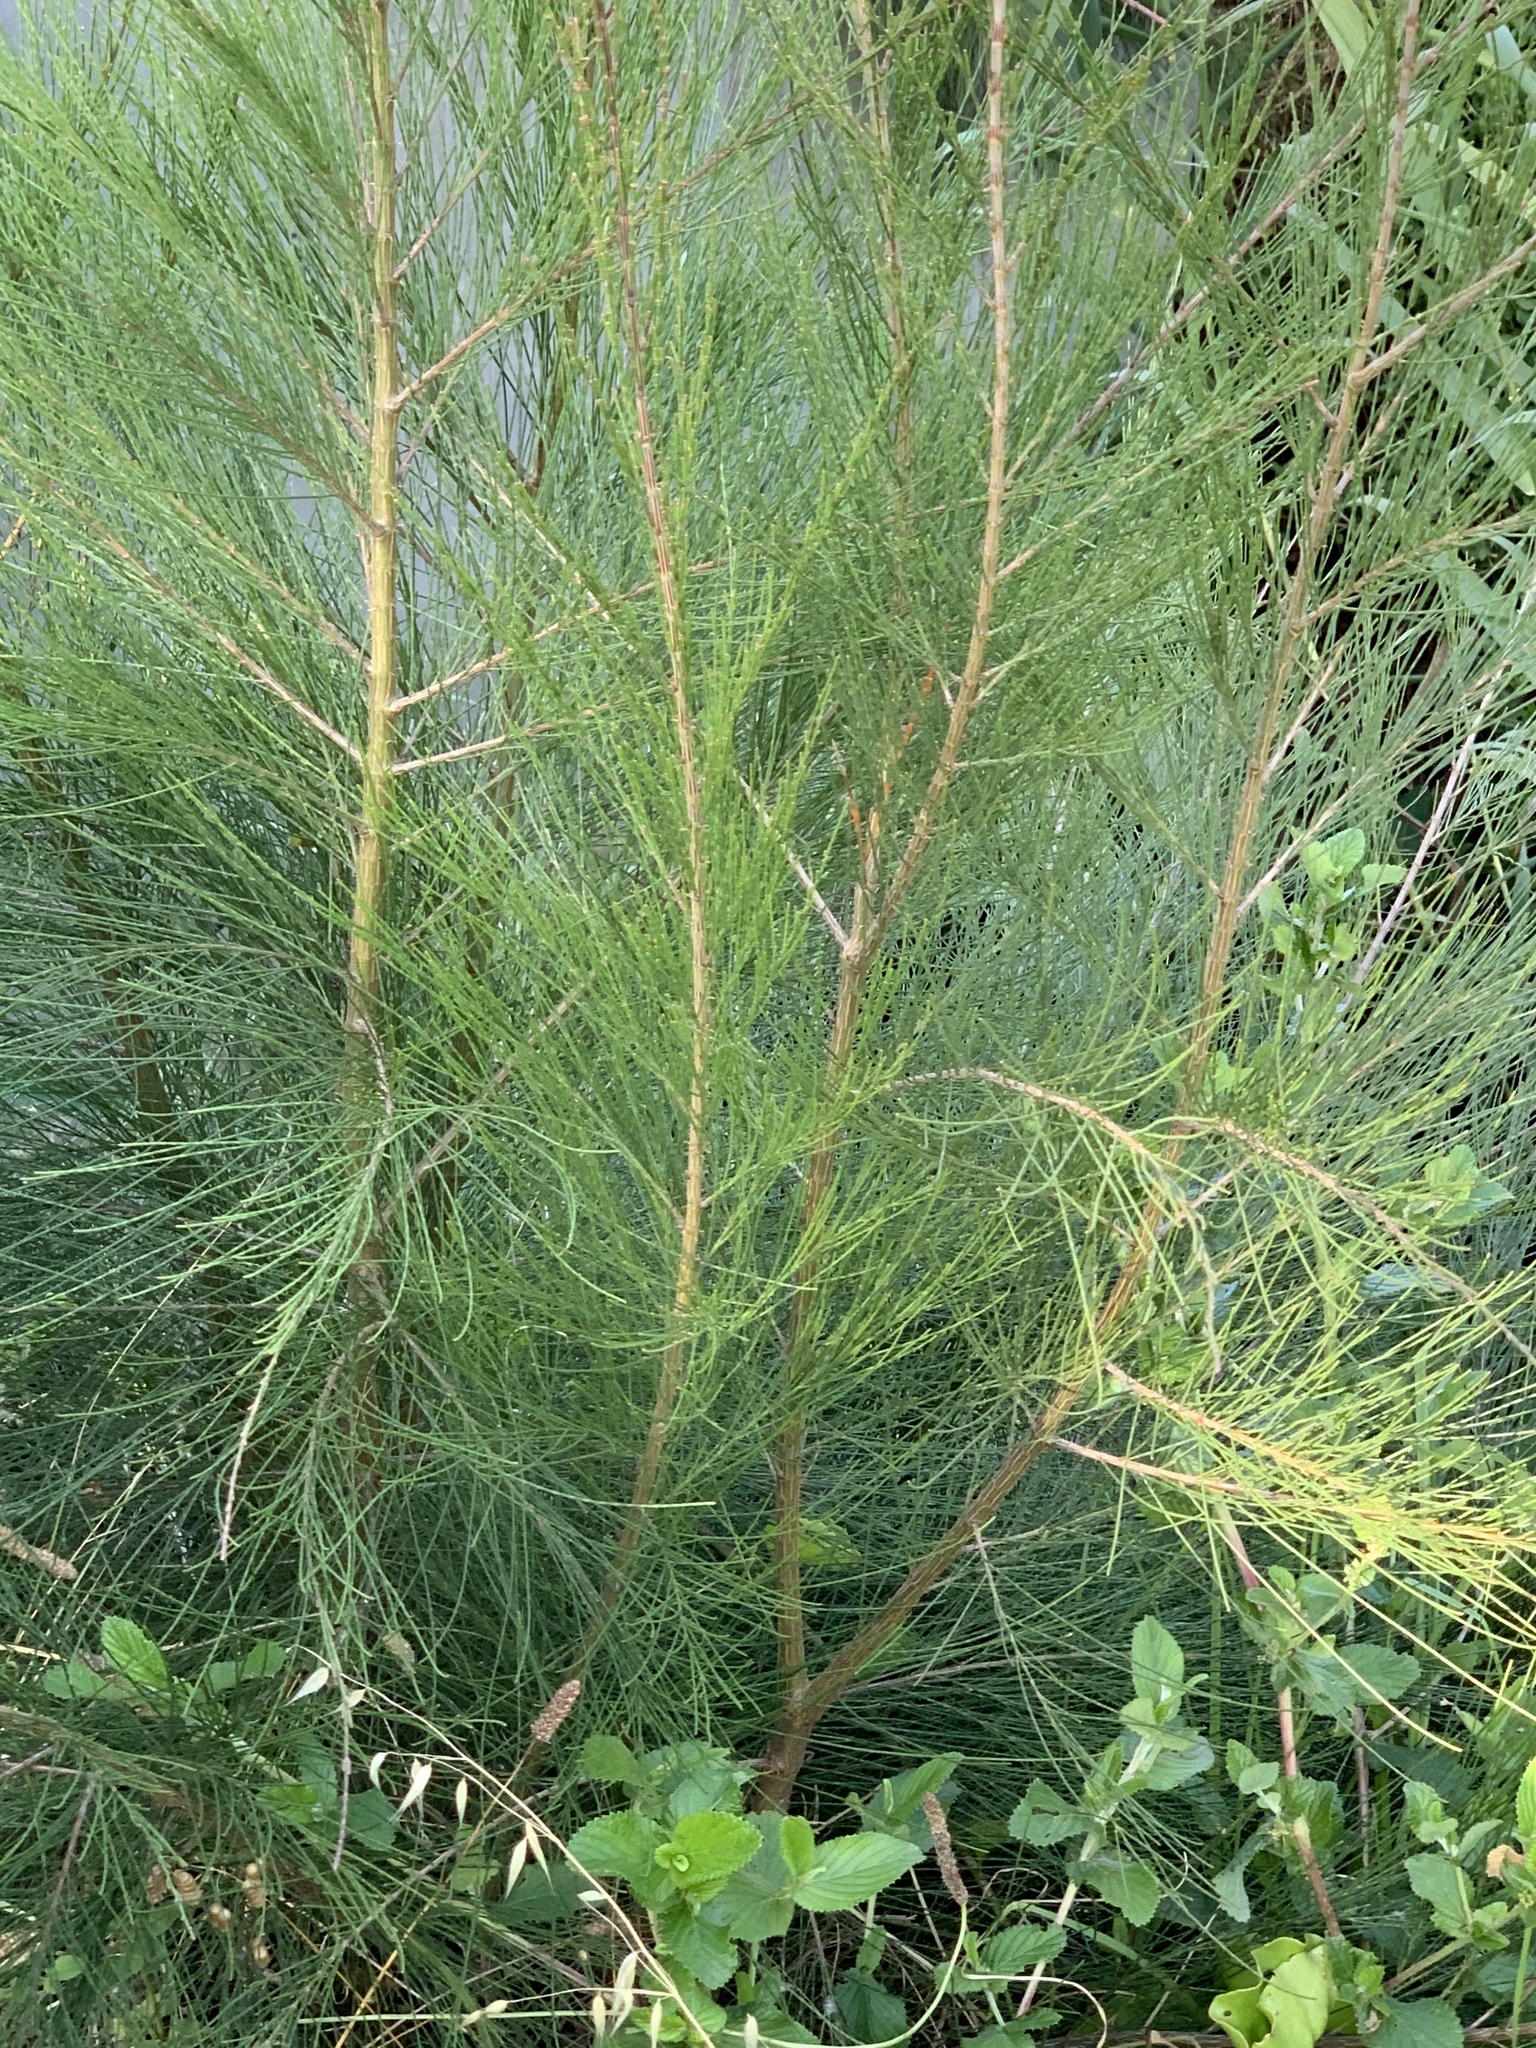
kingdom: Plantae
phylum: Tracheophyta
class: Magnoliopsida
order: Fagales
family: Casuarinaceae
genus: Casuarina
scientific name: Casuarina cunninghamiana
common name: River sheoak
